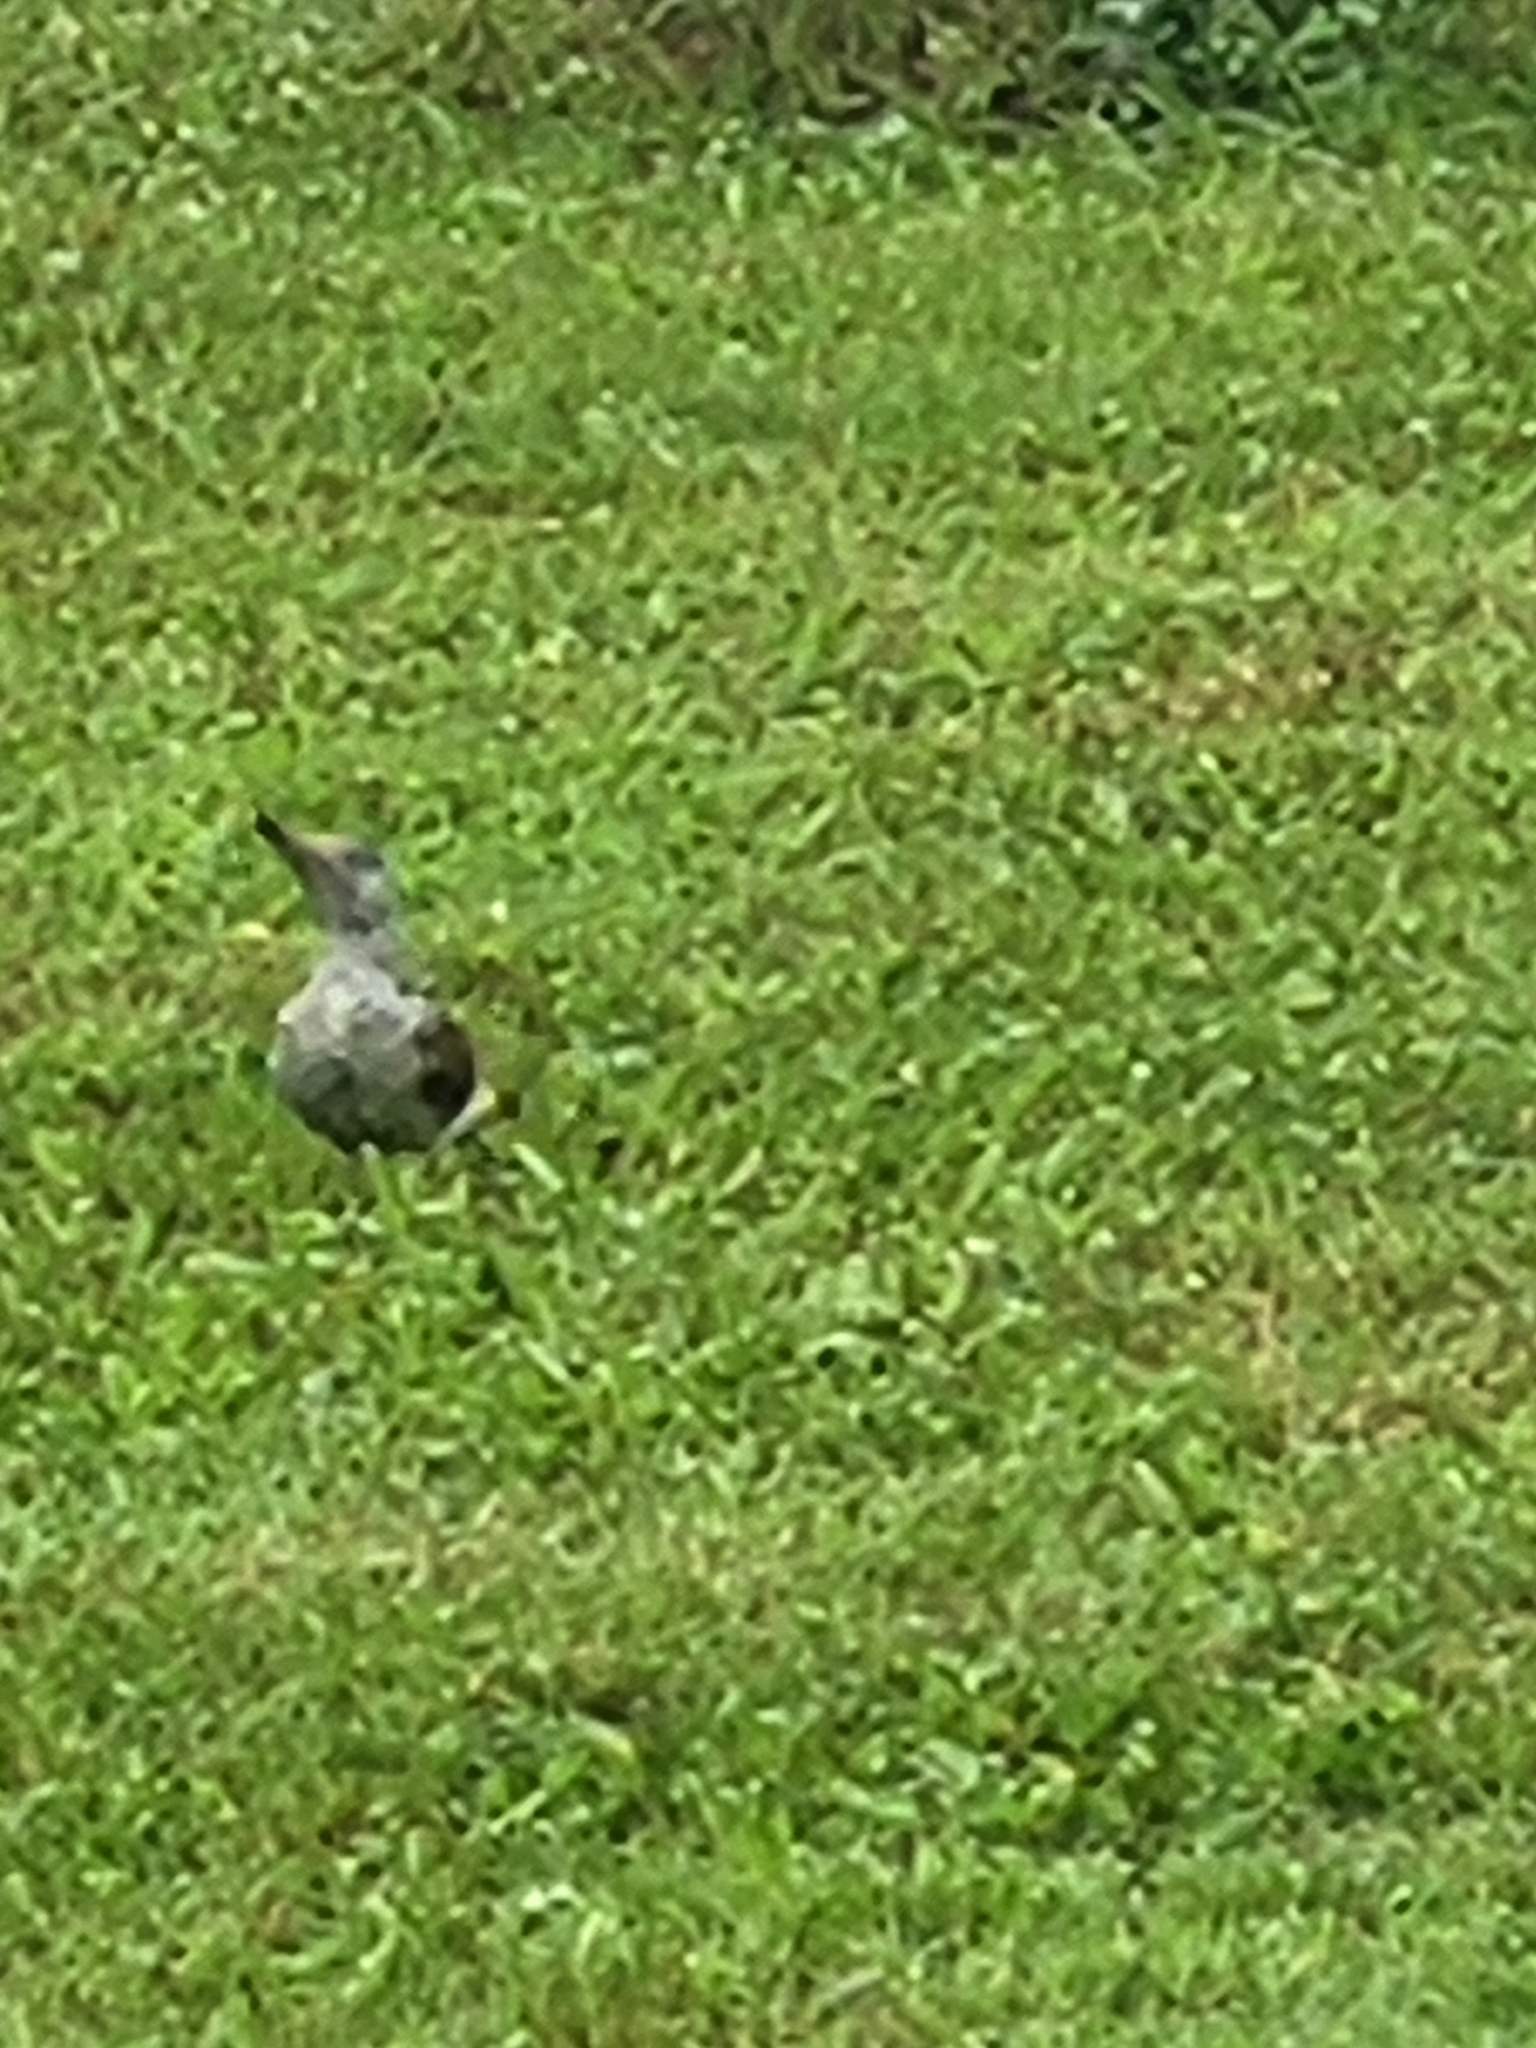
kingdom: Animalia
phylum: Chordata
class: Aves
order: Piciformes
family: Picidae
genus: Picus
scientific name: Picus viridis
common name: European green woodpecker
